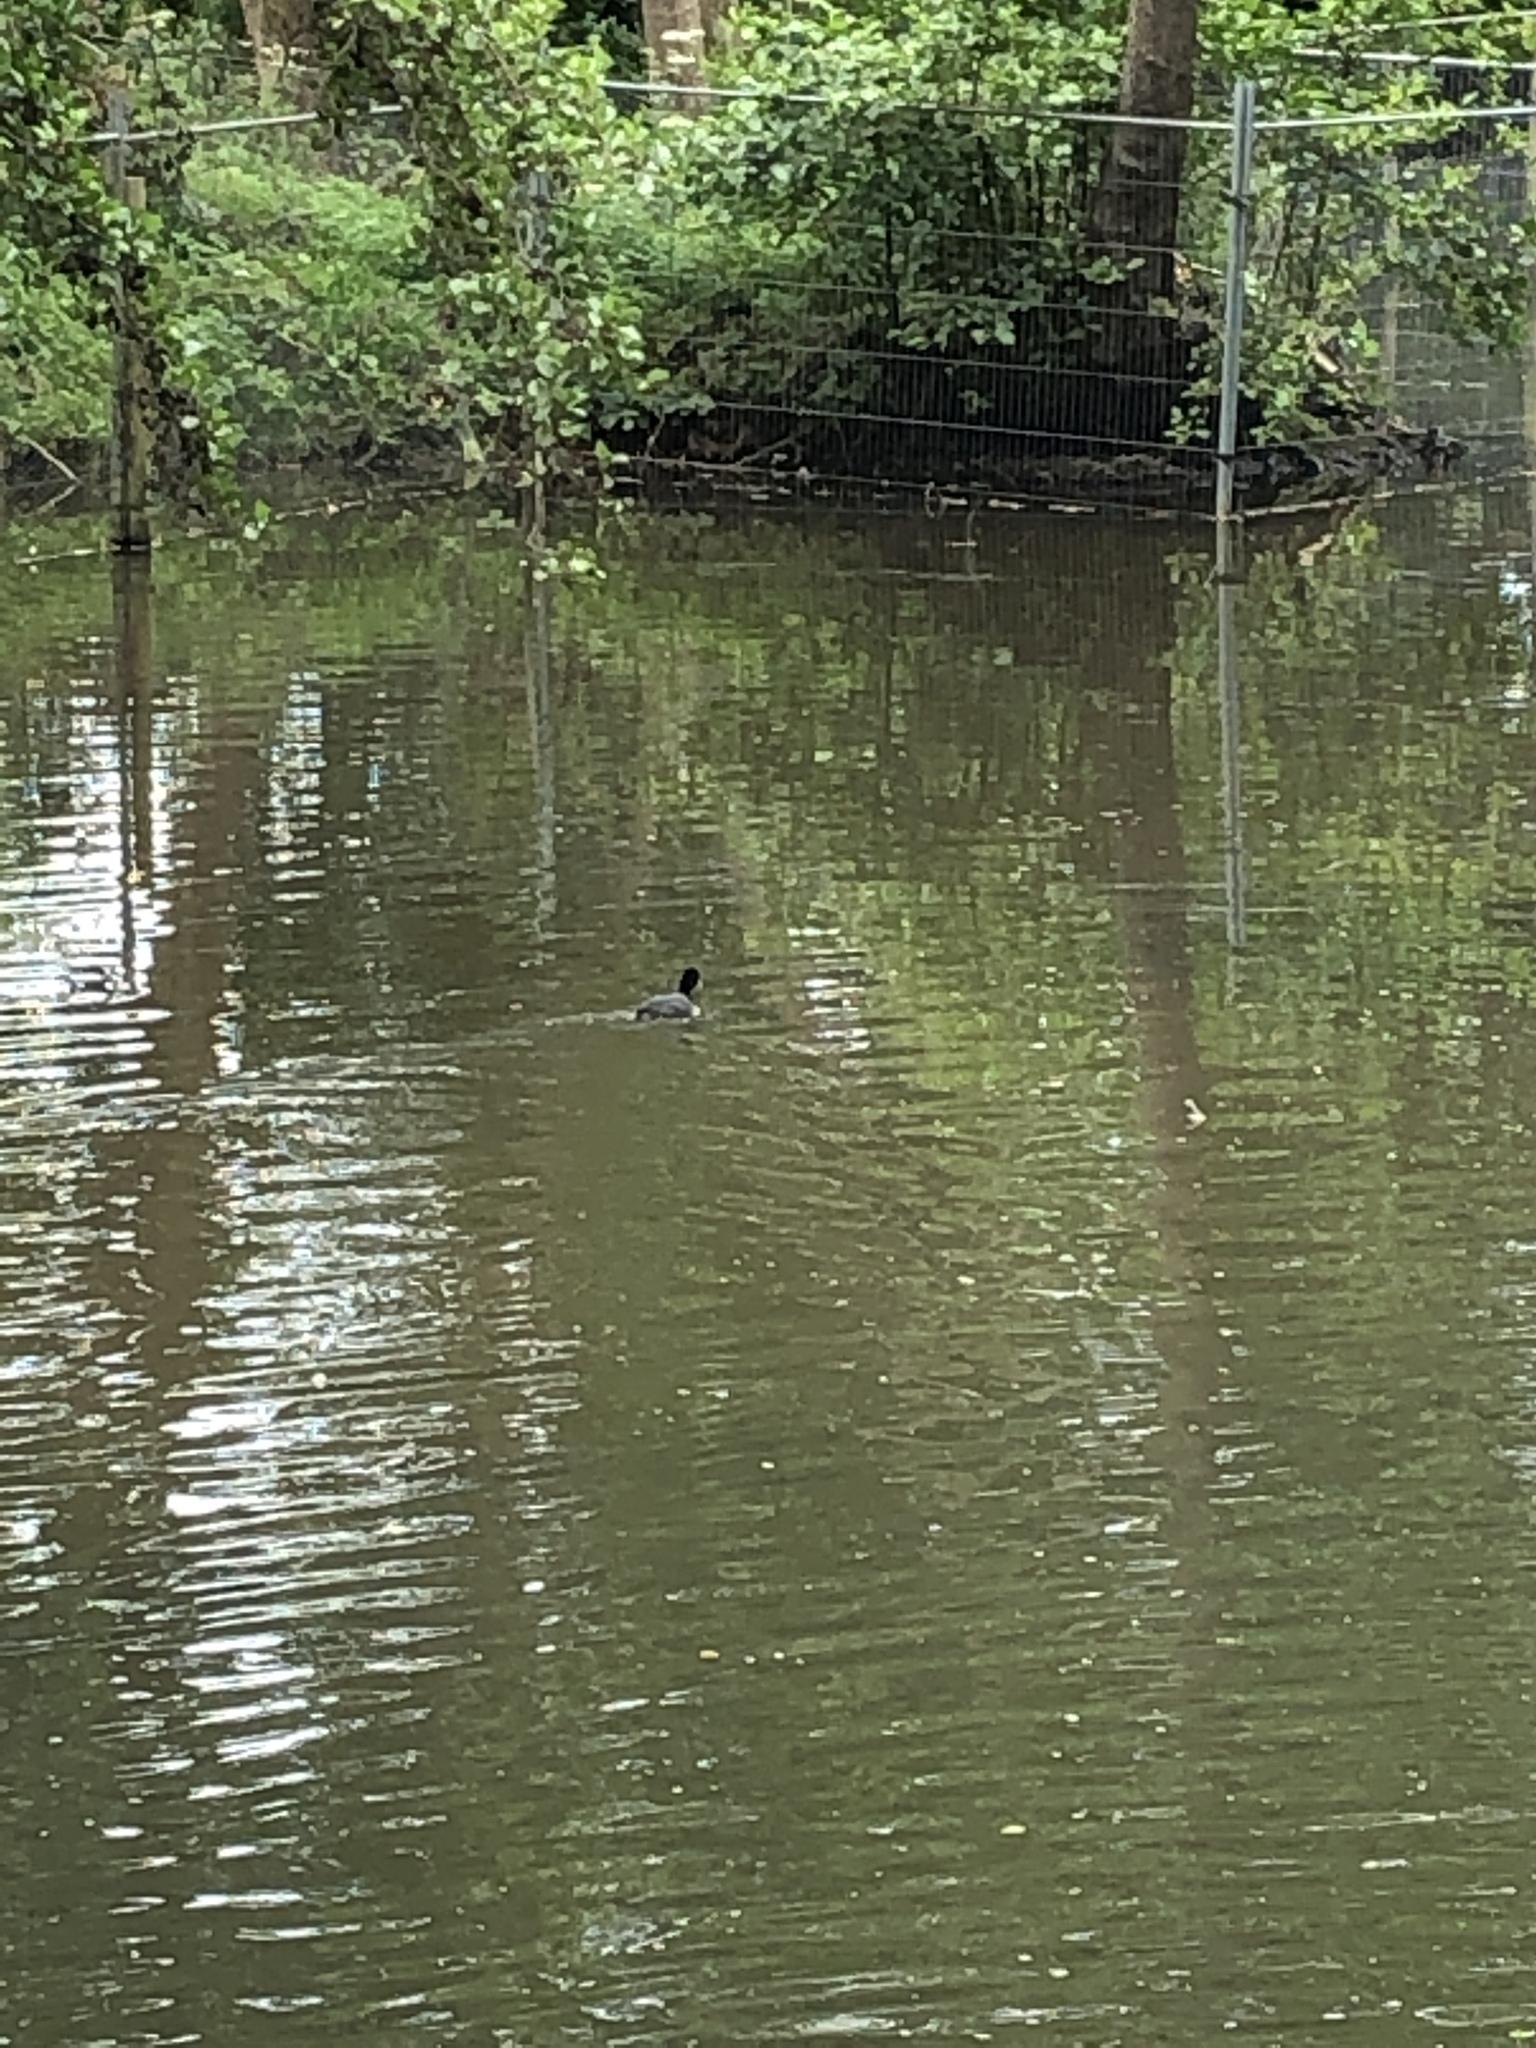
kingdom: Animalia
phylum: Chordata
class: Aves
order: Gruiformes
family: Rallidae
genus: Fulica
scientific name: Fulica atra
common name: Eurasian coot
